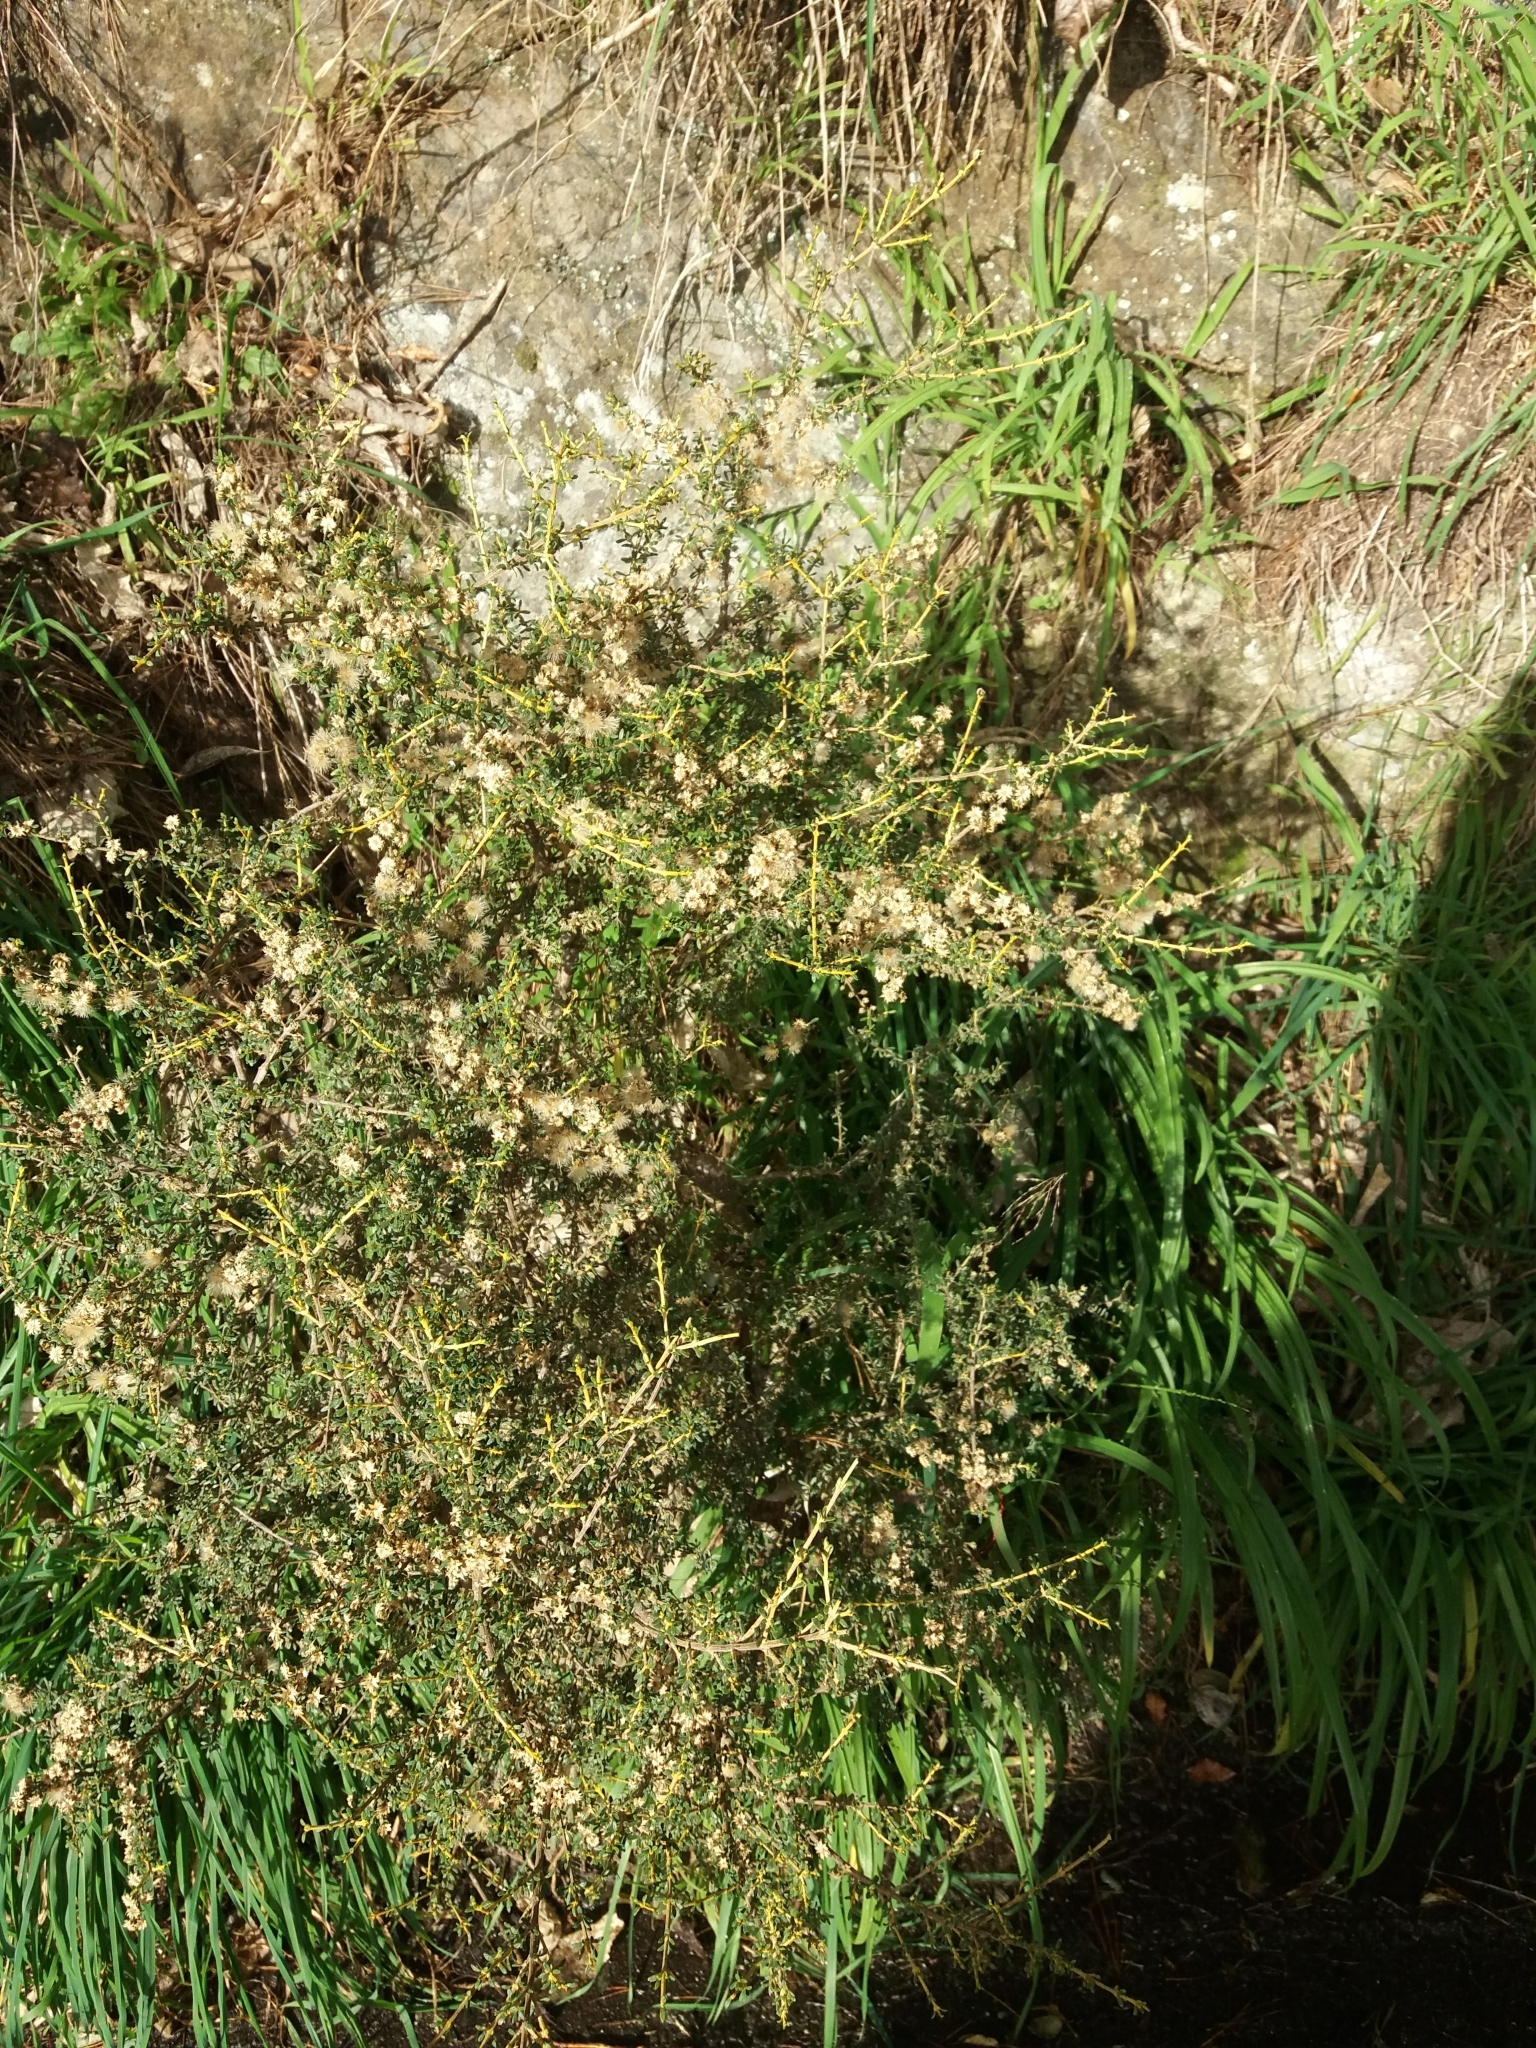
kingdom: Plantae
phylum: Tracheophyta
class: Magnoliopsida
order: Asterales
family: Asteraceae
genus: Olearia
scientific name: Olearia solandri
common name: Coastal daisybush
